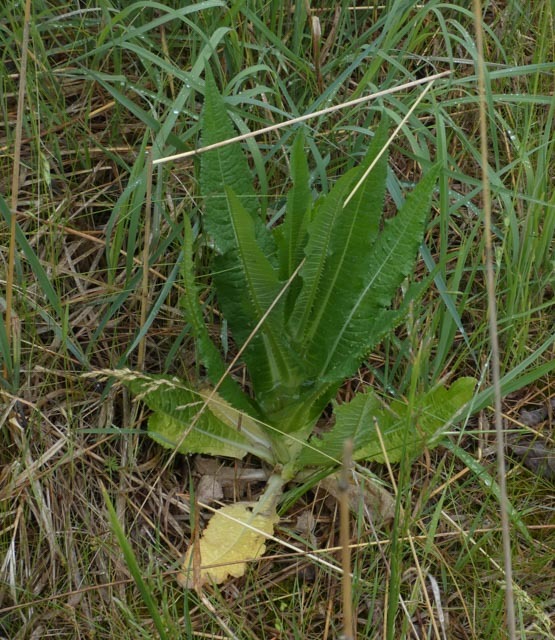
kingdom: Plantae
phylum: Tracheophyta
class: Magnoliopsida
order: Dipsacales
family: Caprifoliaceae
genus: Dipsacus
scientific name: Dipsacus fullonum
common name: Teasel
